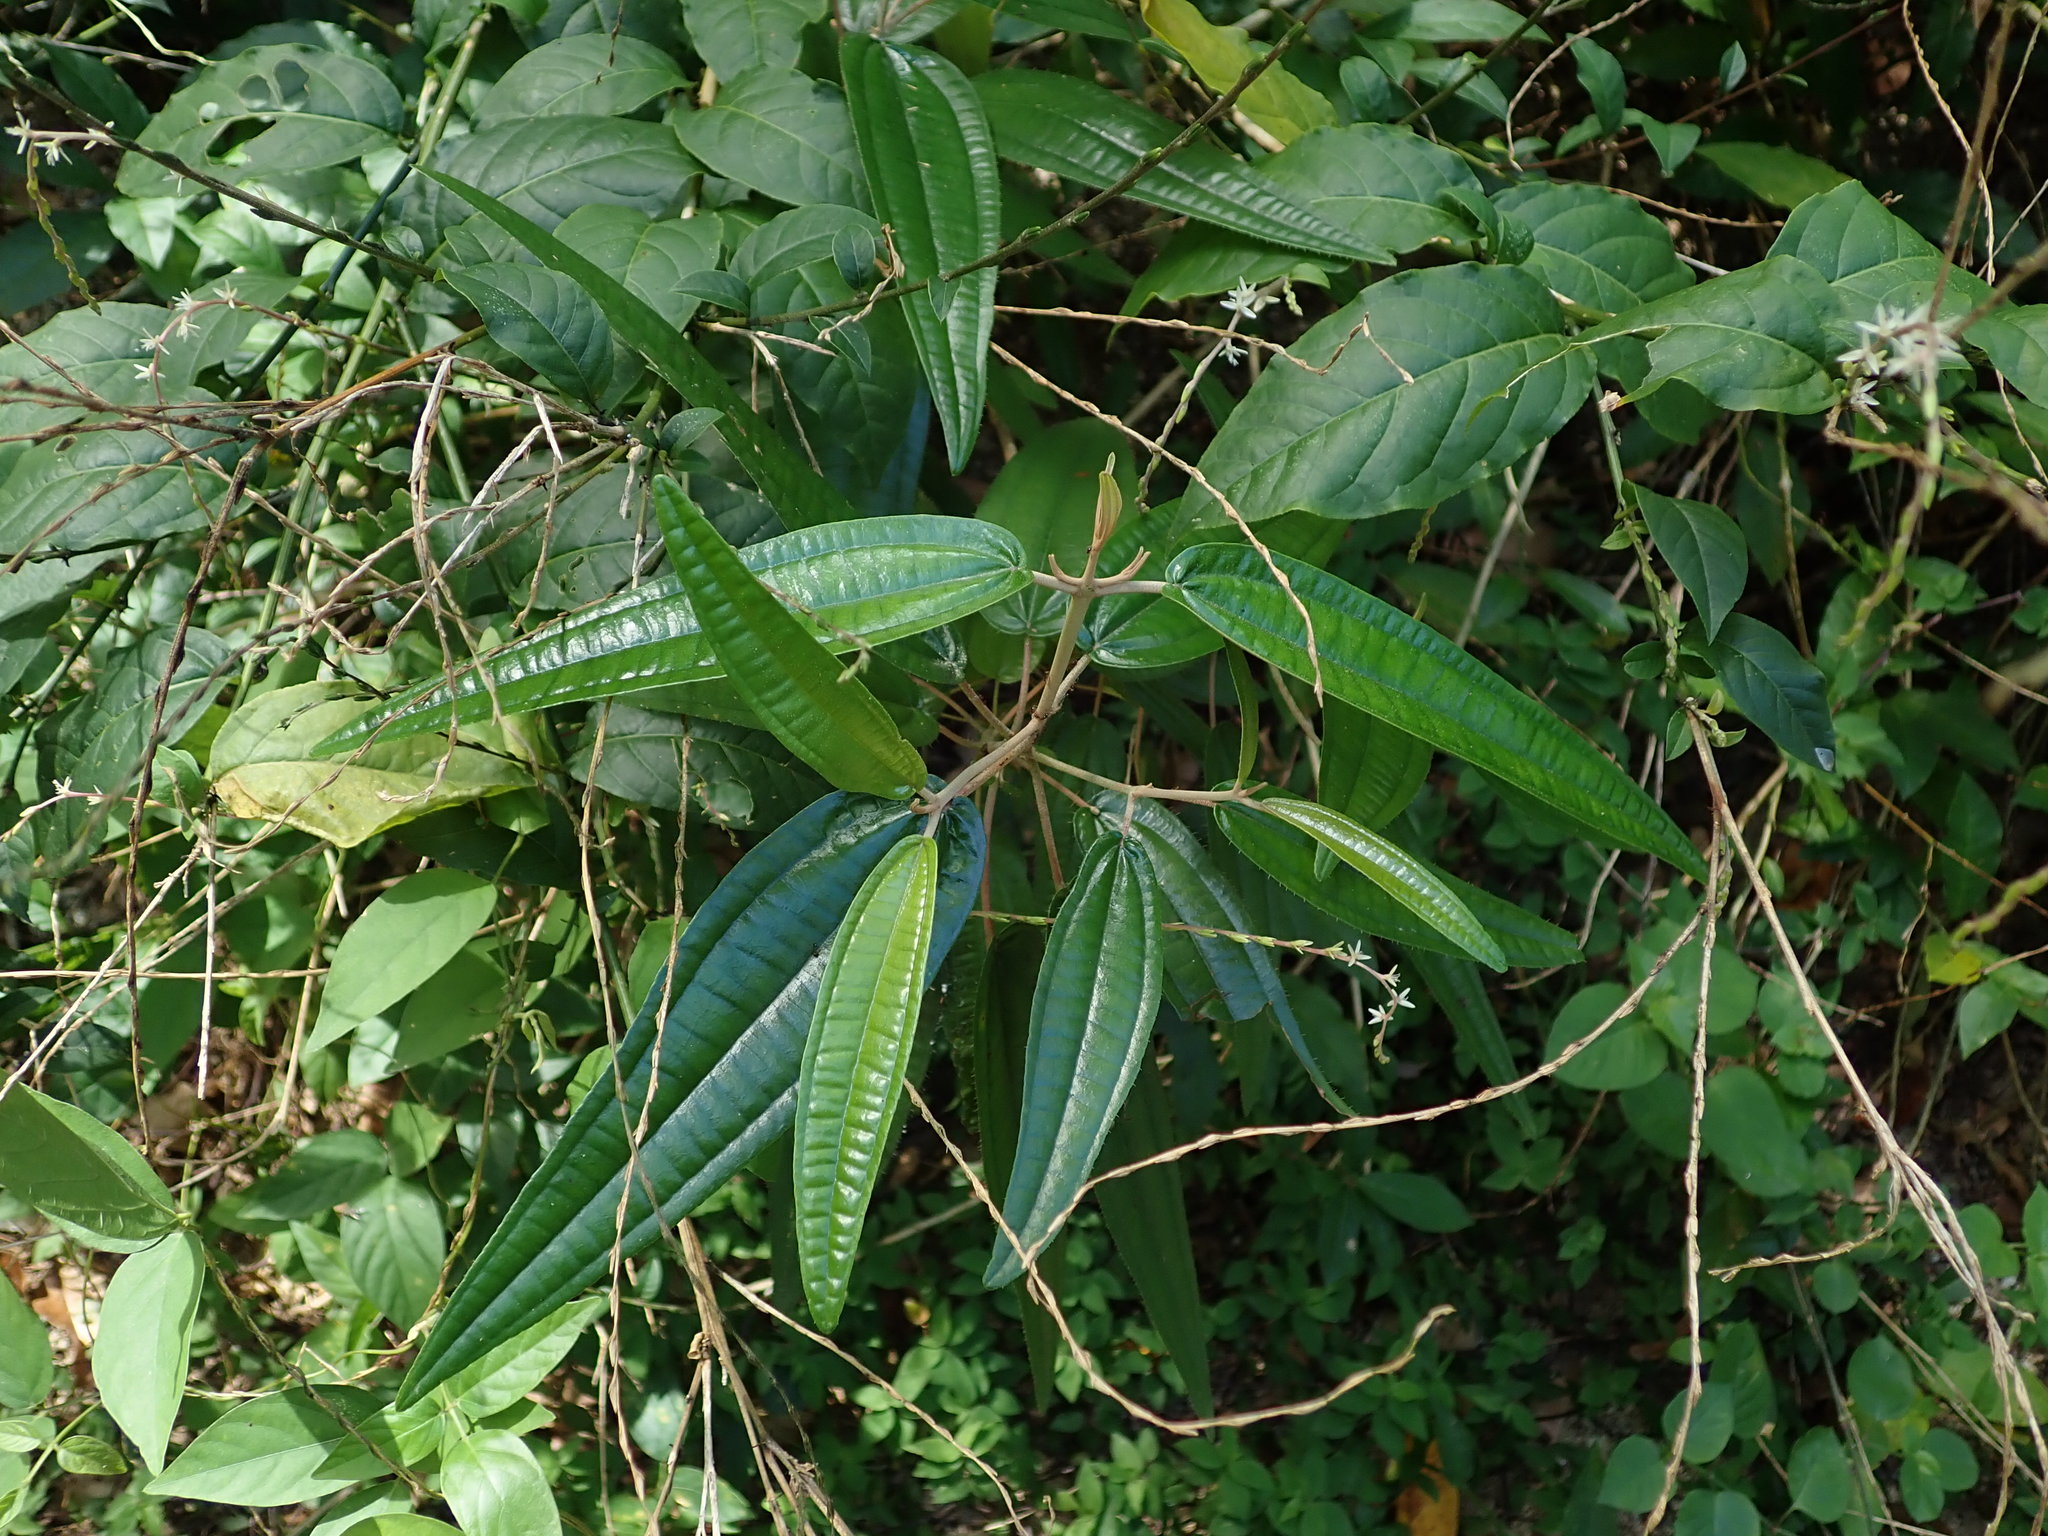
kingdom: Plantae
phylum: Tracheophyta
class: Magnoliopsida
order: Myrtales
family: Melastomataceae
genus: Miconia
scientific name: Miconia elaeagnoides
